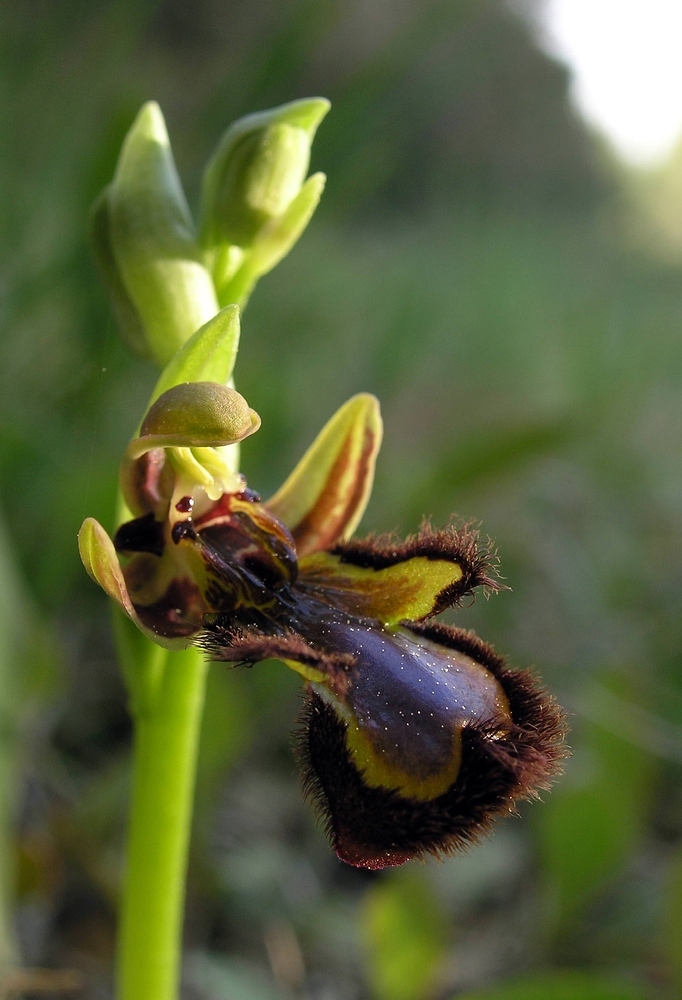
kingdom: Plantae
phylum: Tracheophyta
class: Liliopsida
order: Asparagales
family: Orchidaceae
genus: Ophrys
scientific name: Ophrys speculum
